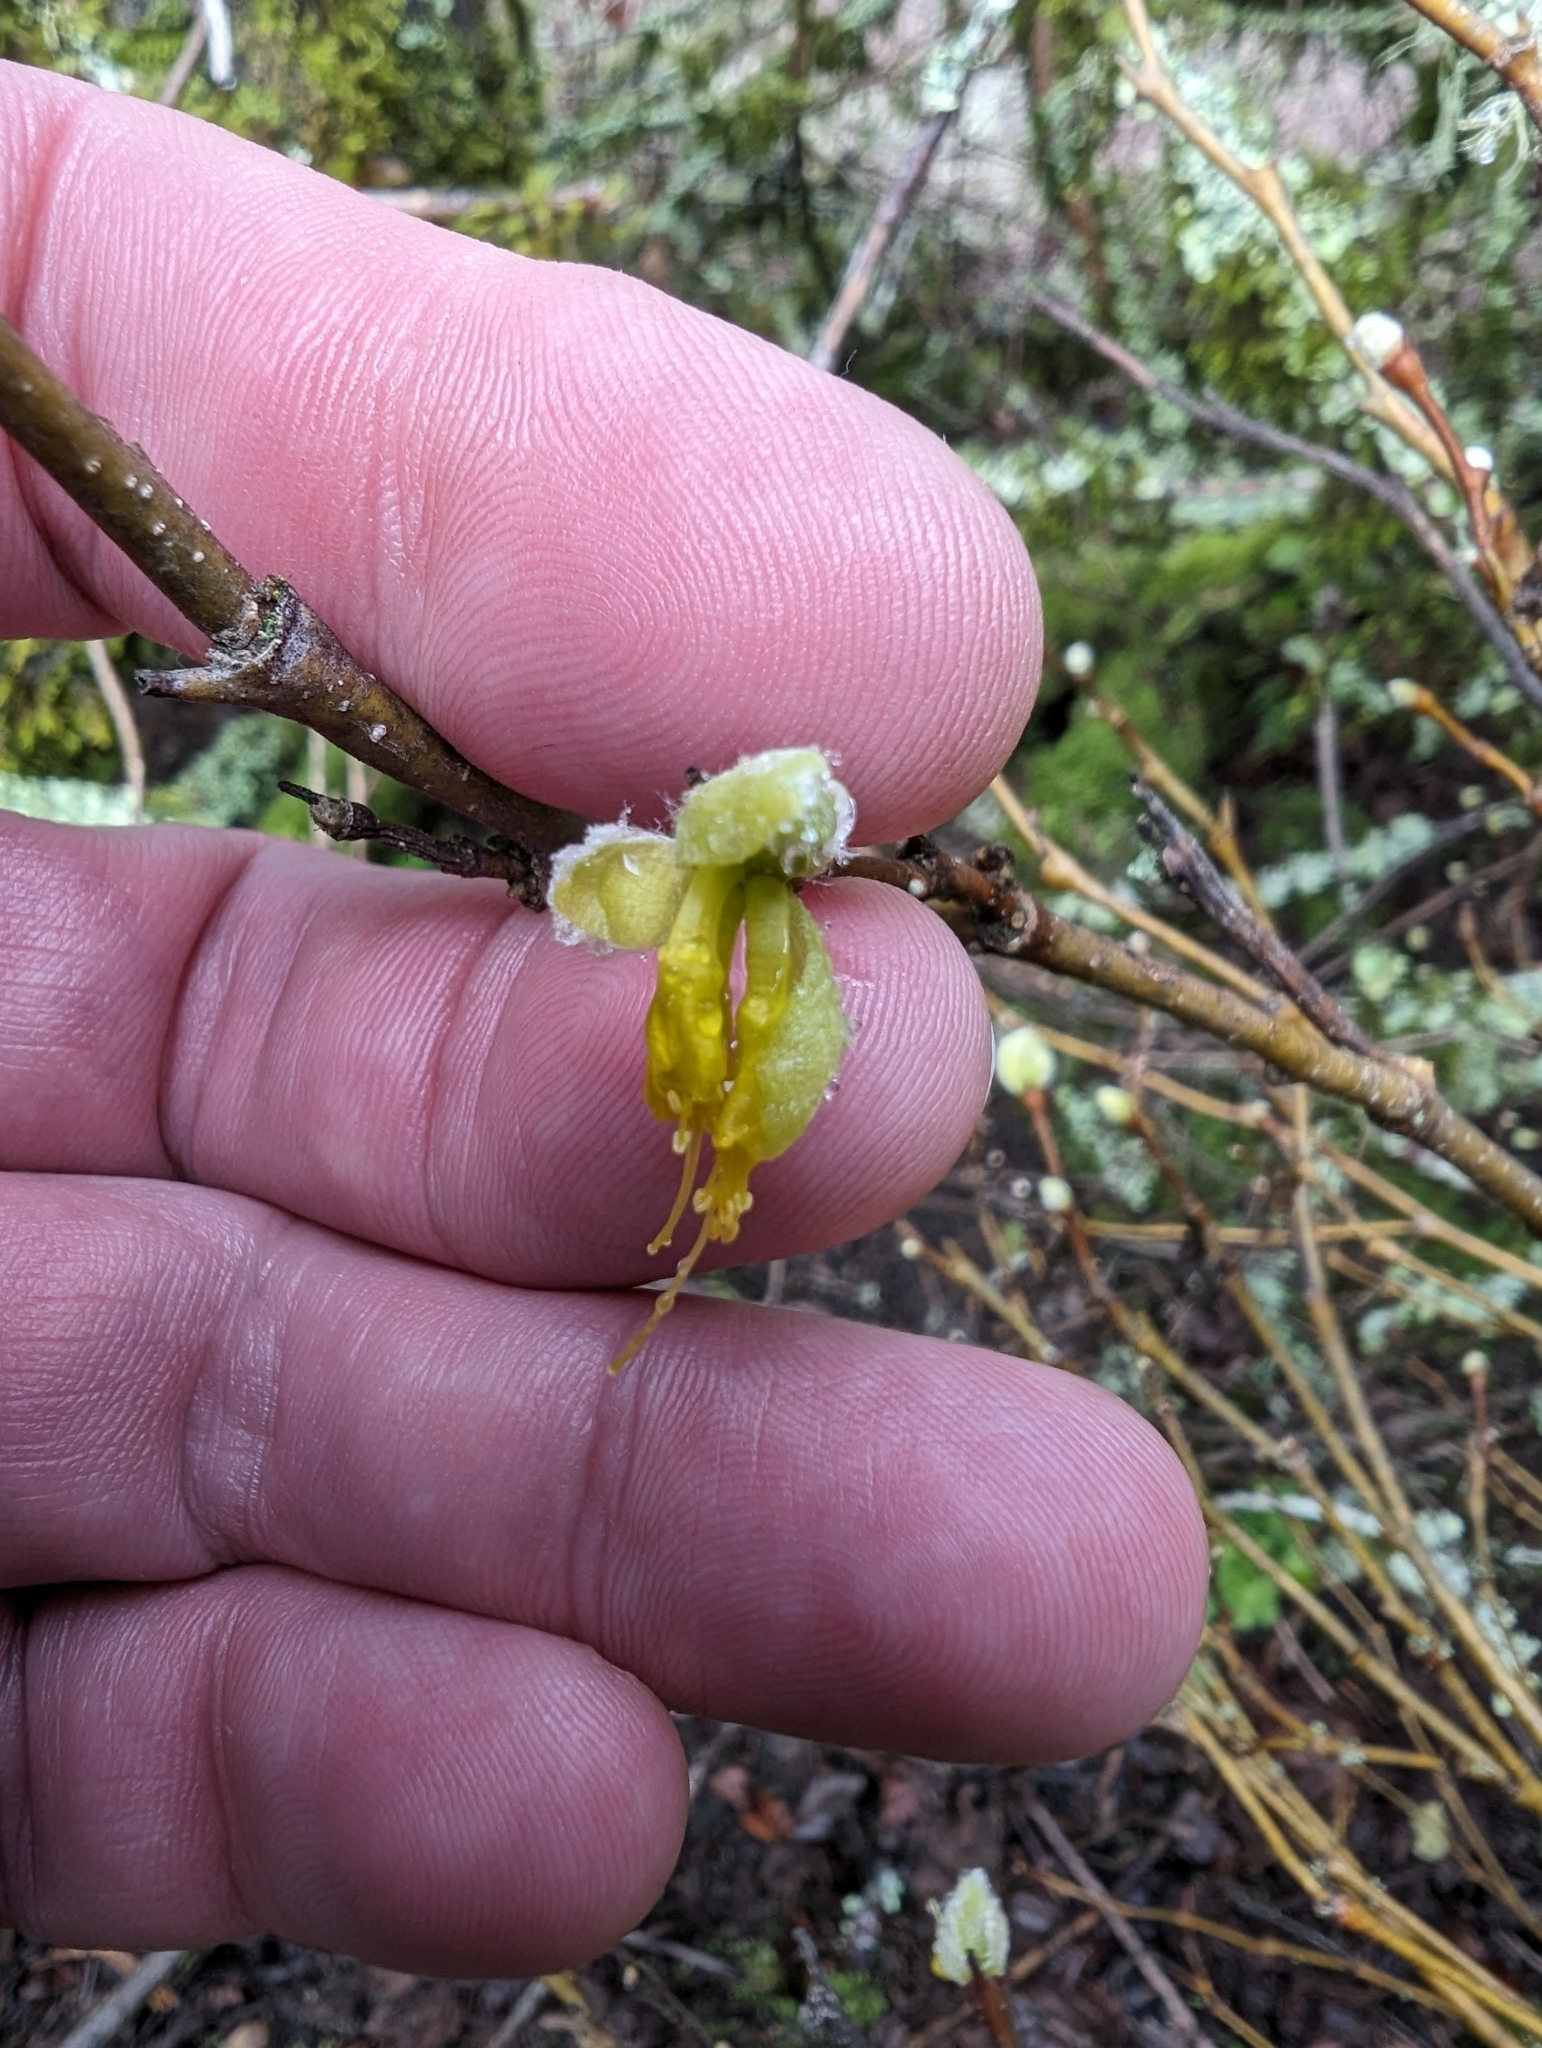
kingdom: Plantae
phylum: Tracheophyta
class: Magnoliopsida
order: Malvales
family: Thymelaeaceae
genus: Dirca
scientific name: Dirca occidentalis
